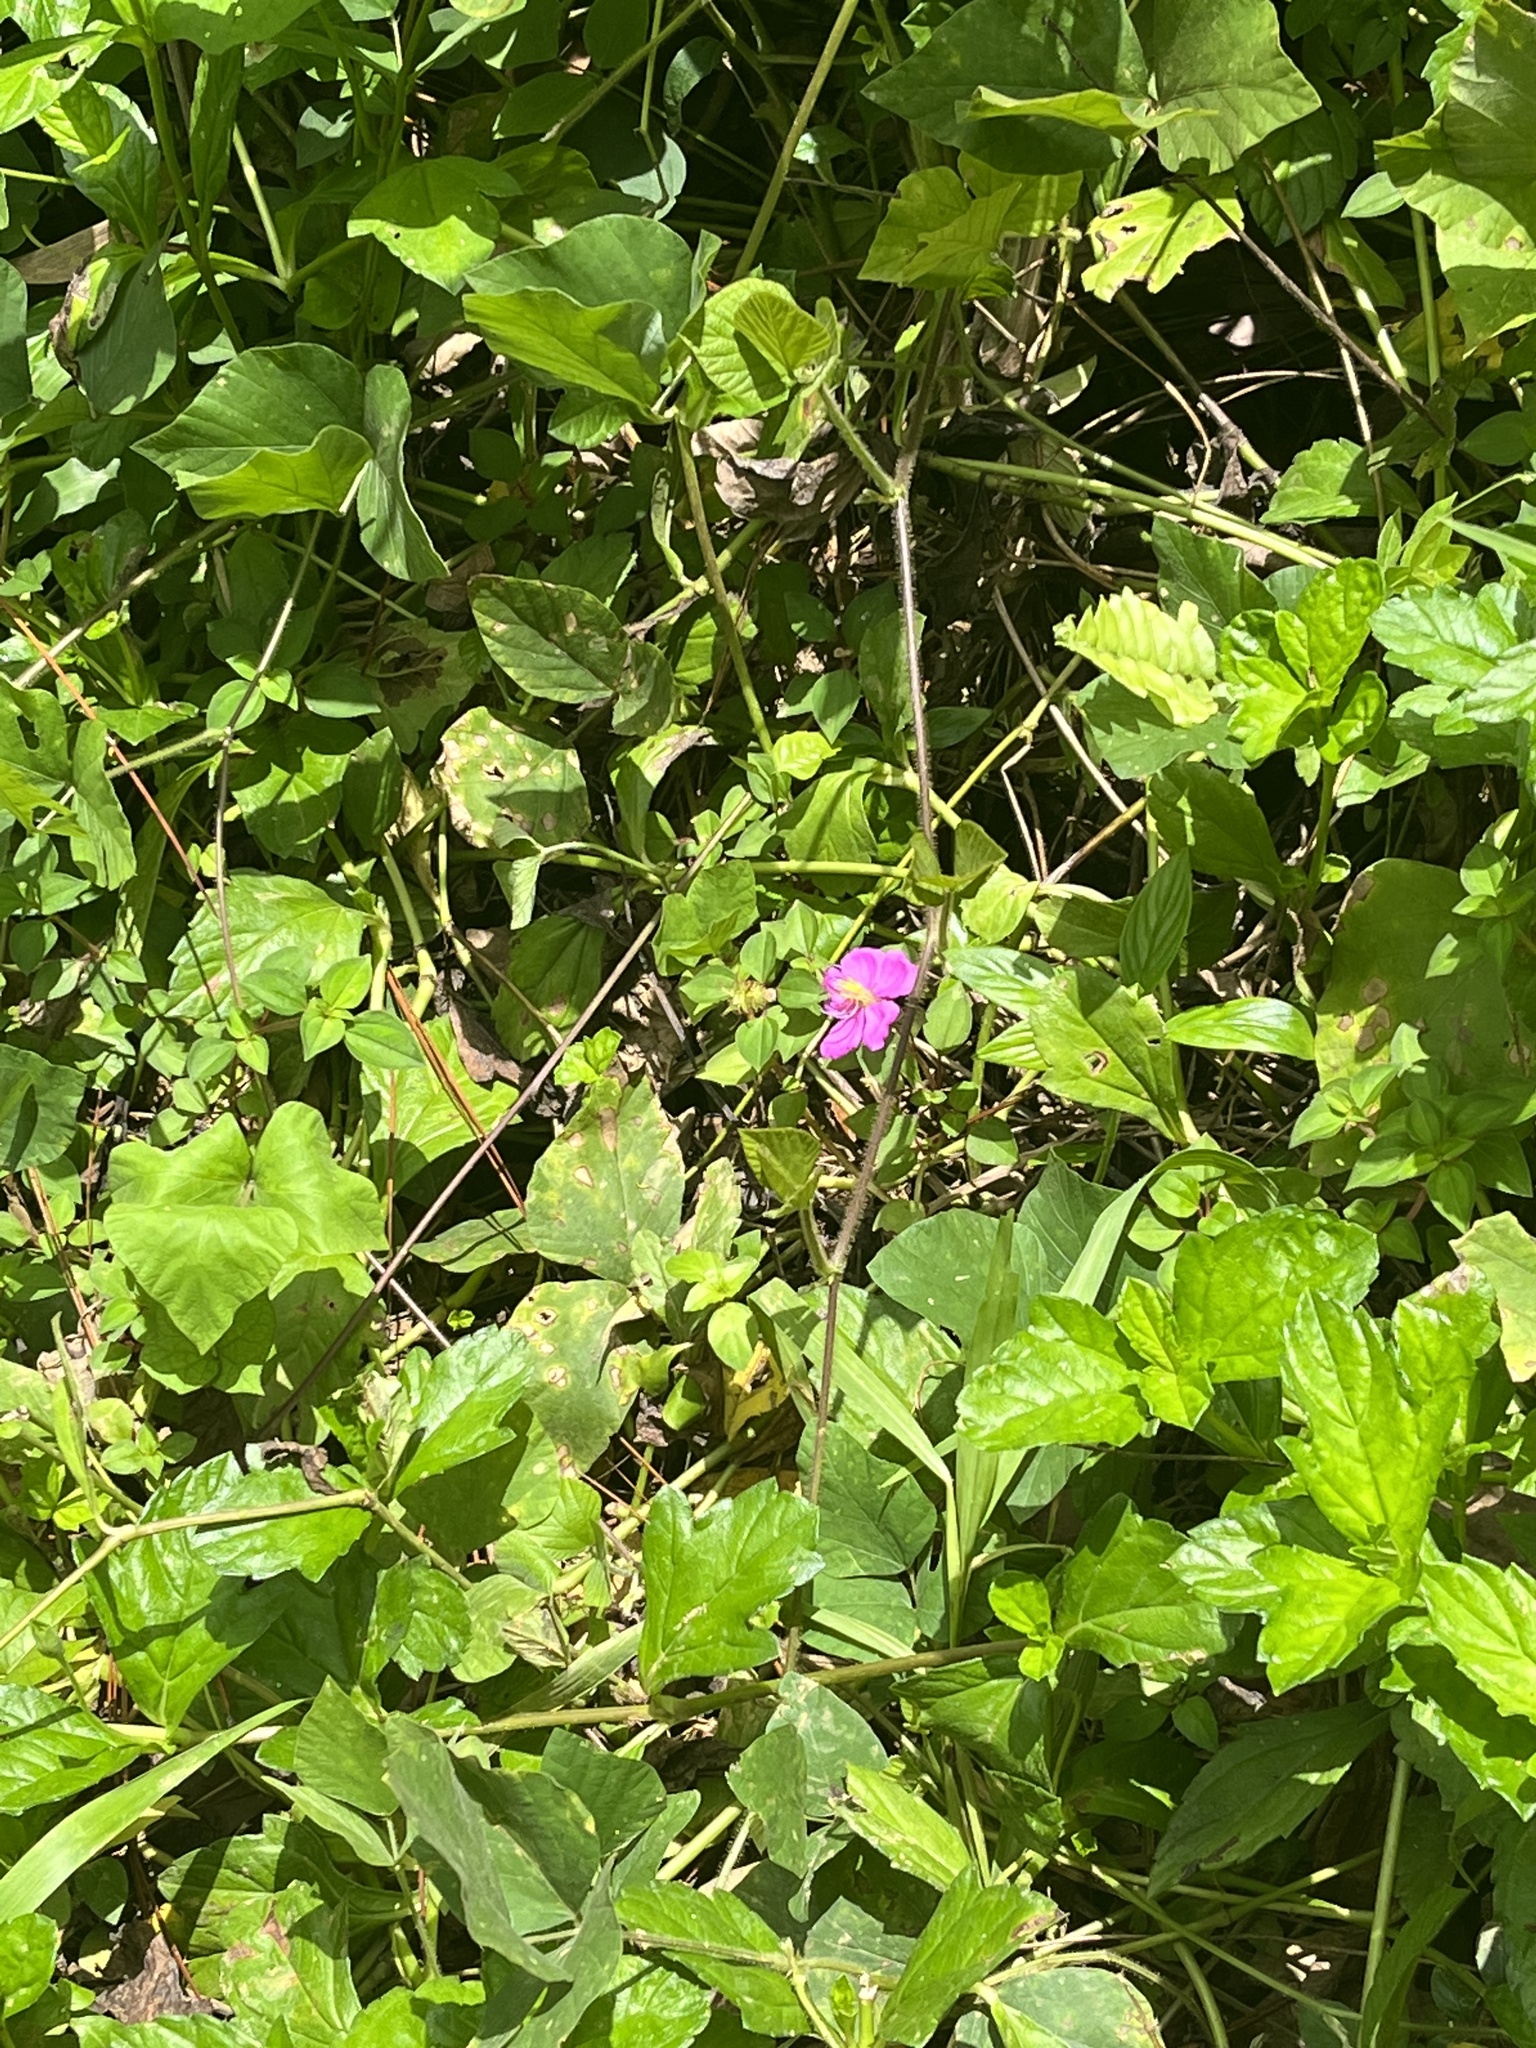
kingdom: Plantae
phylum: Tracheophyta
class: Magnoliopsida
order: Myrtales
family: Melastomataceae
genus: Heterotis
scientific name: Heterotis rotundifolia
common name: Pinklady
